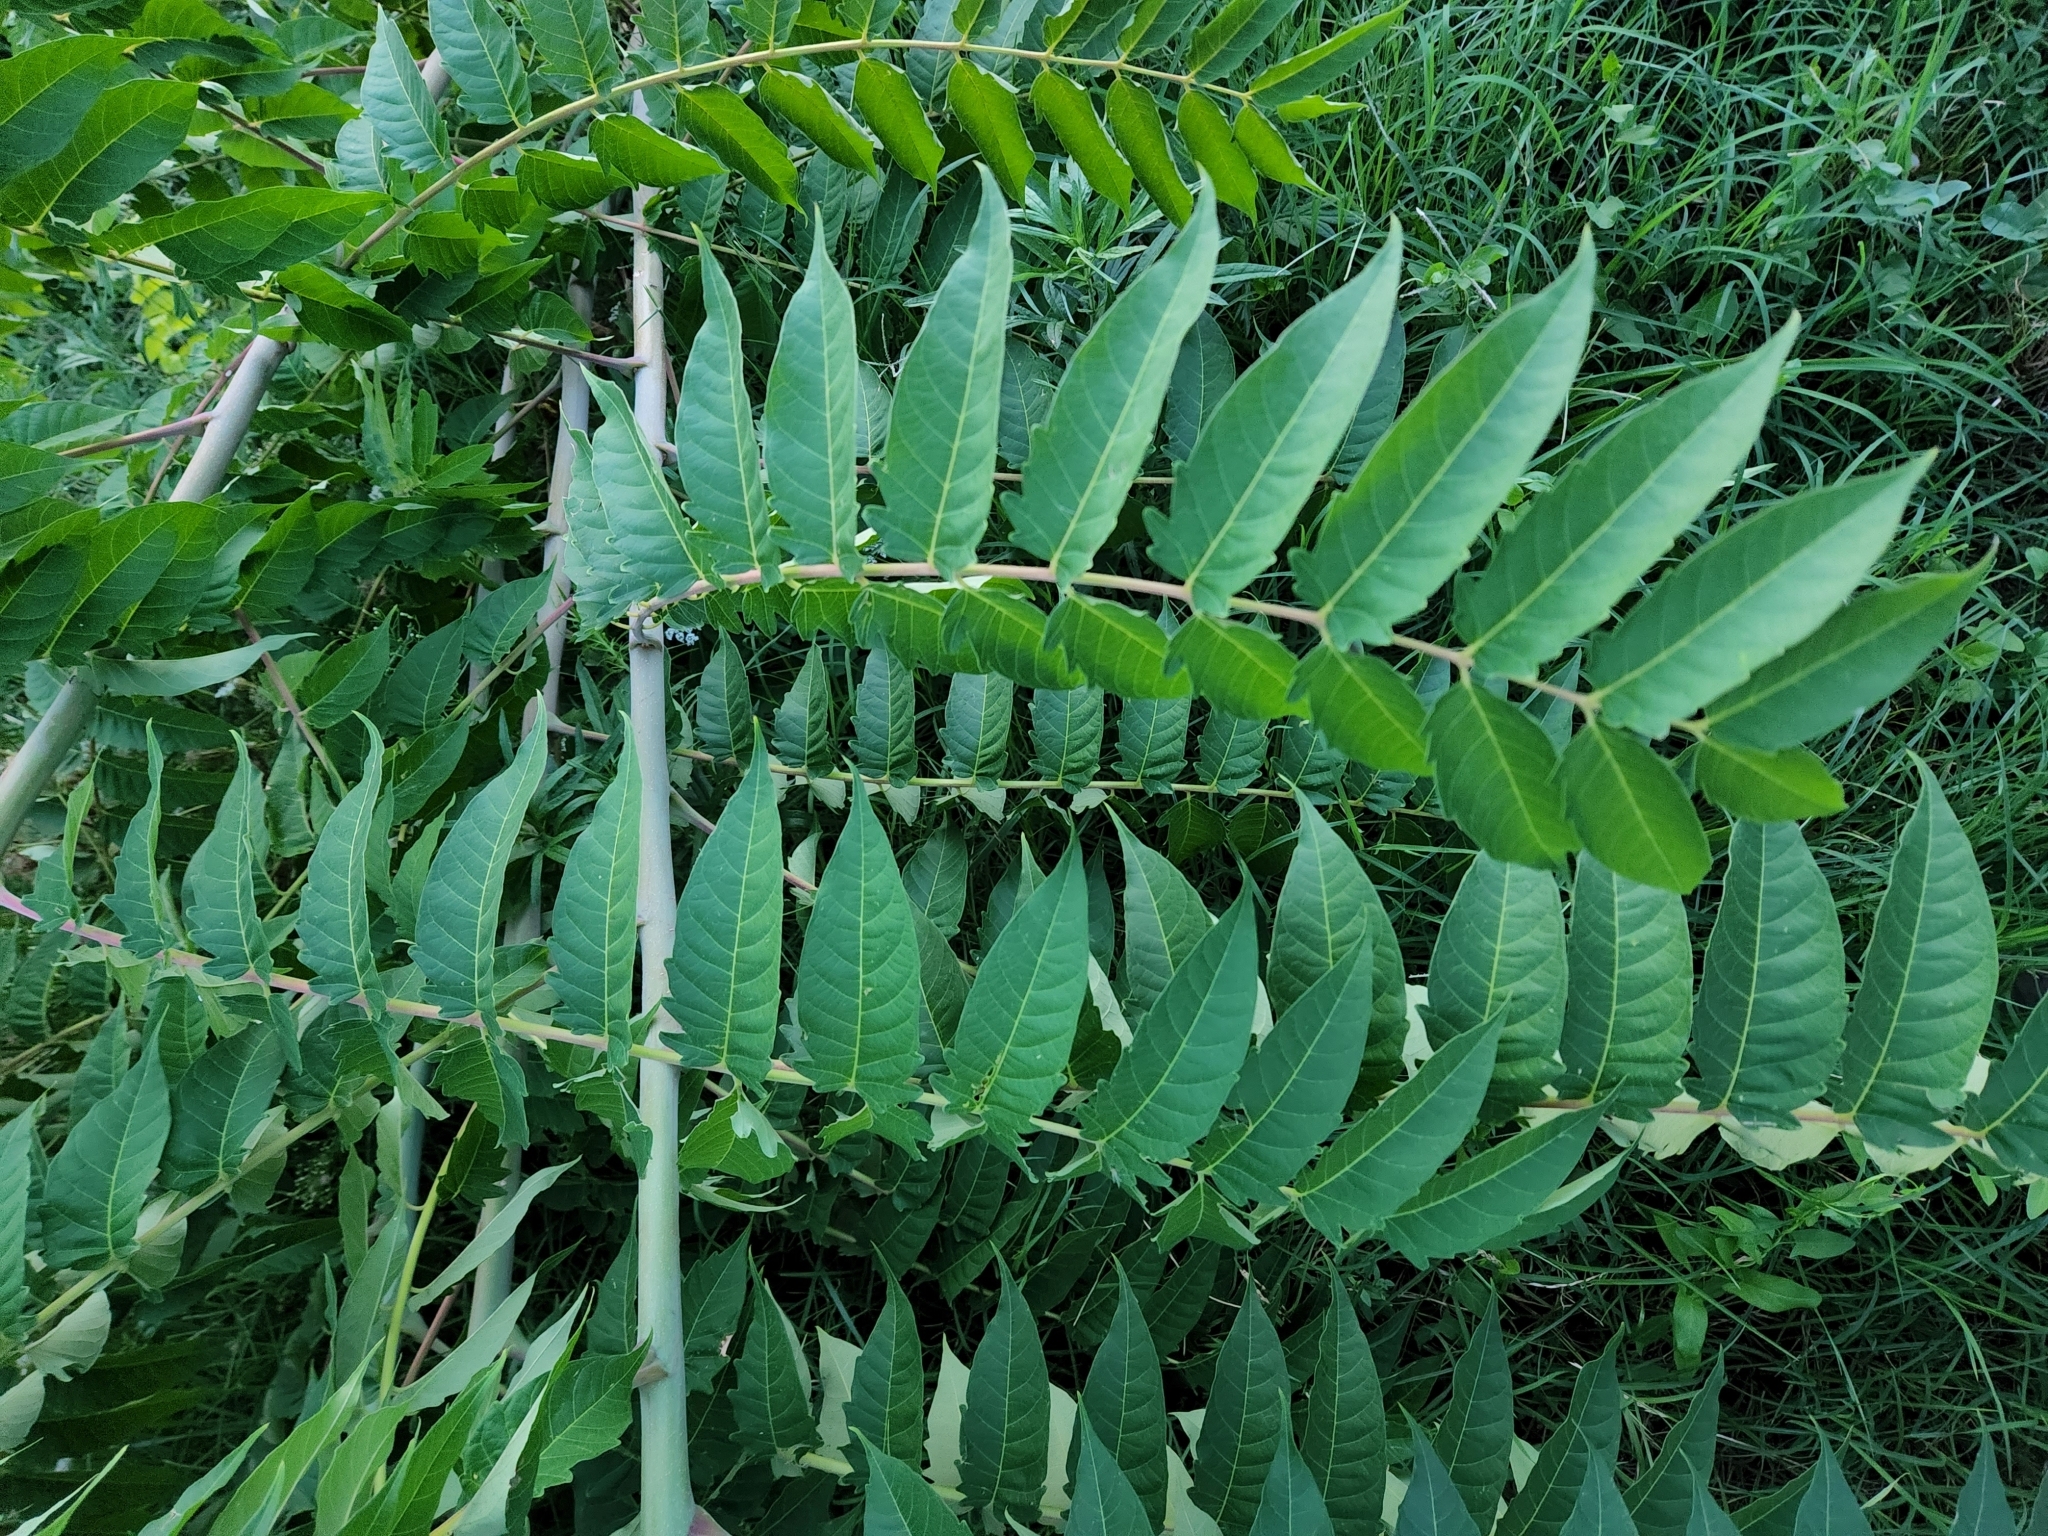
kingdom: Plantae
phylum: Tracheophyta
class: Magnoliopsida
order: Sapindales
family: Simaroubaceae
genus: Ailanthus
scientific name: Ailanthus altissima
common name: Tree-of-heaven
